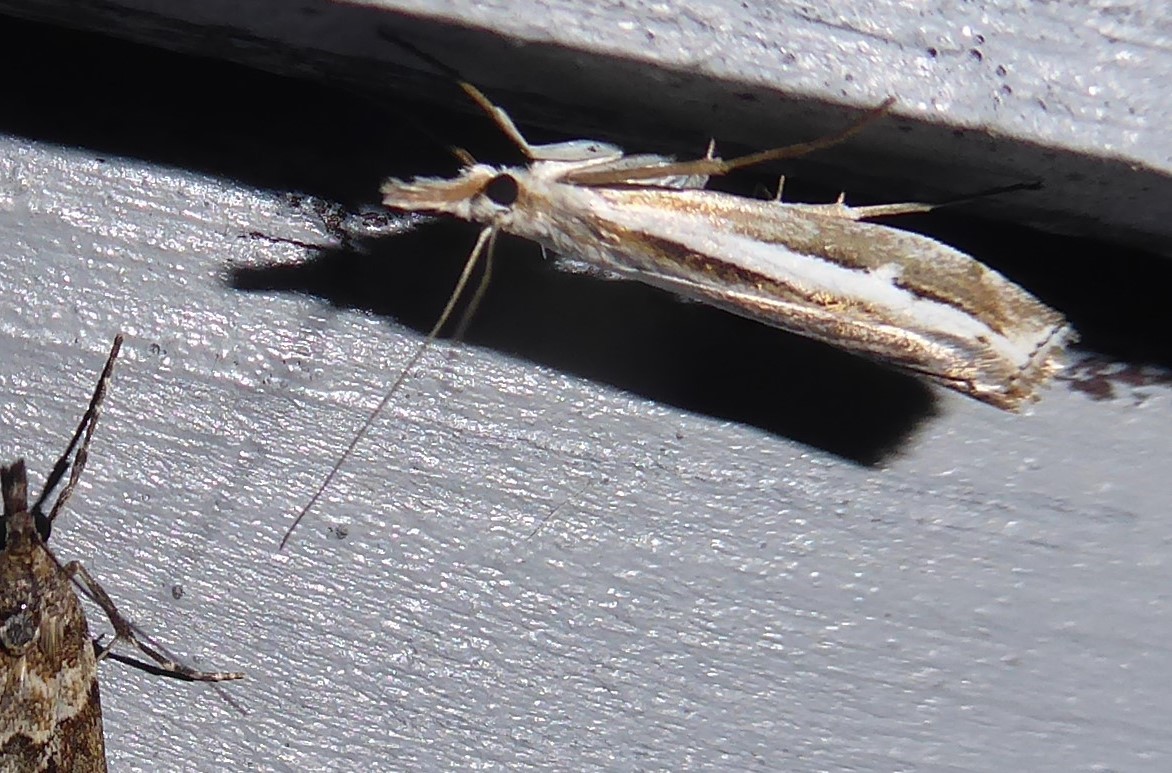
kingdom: Animalia
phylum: Arthropoda
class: Insecta
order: Lepidoptera
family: Crambidae
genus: Orocrambus
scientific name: Orocrambus vittellus
